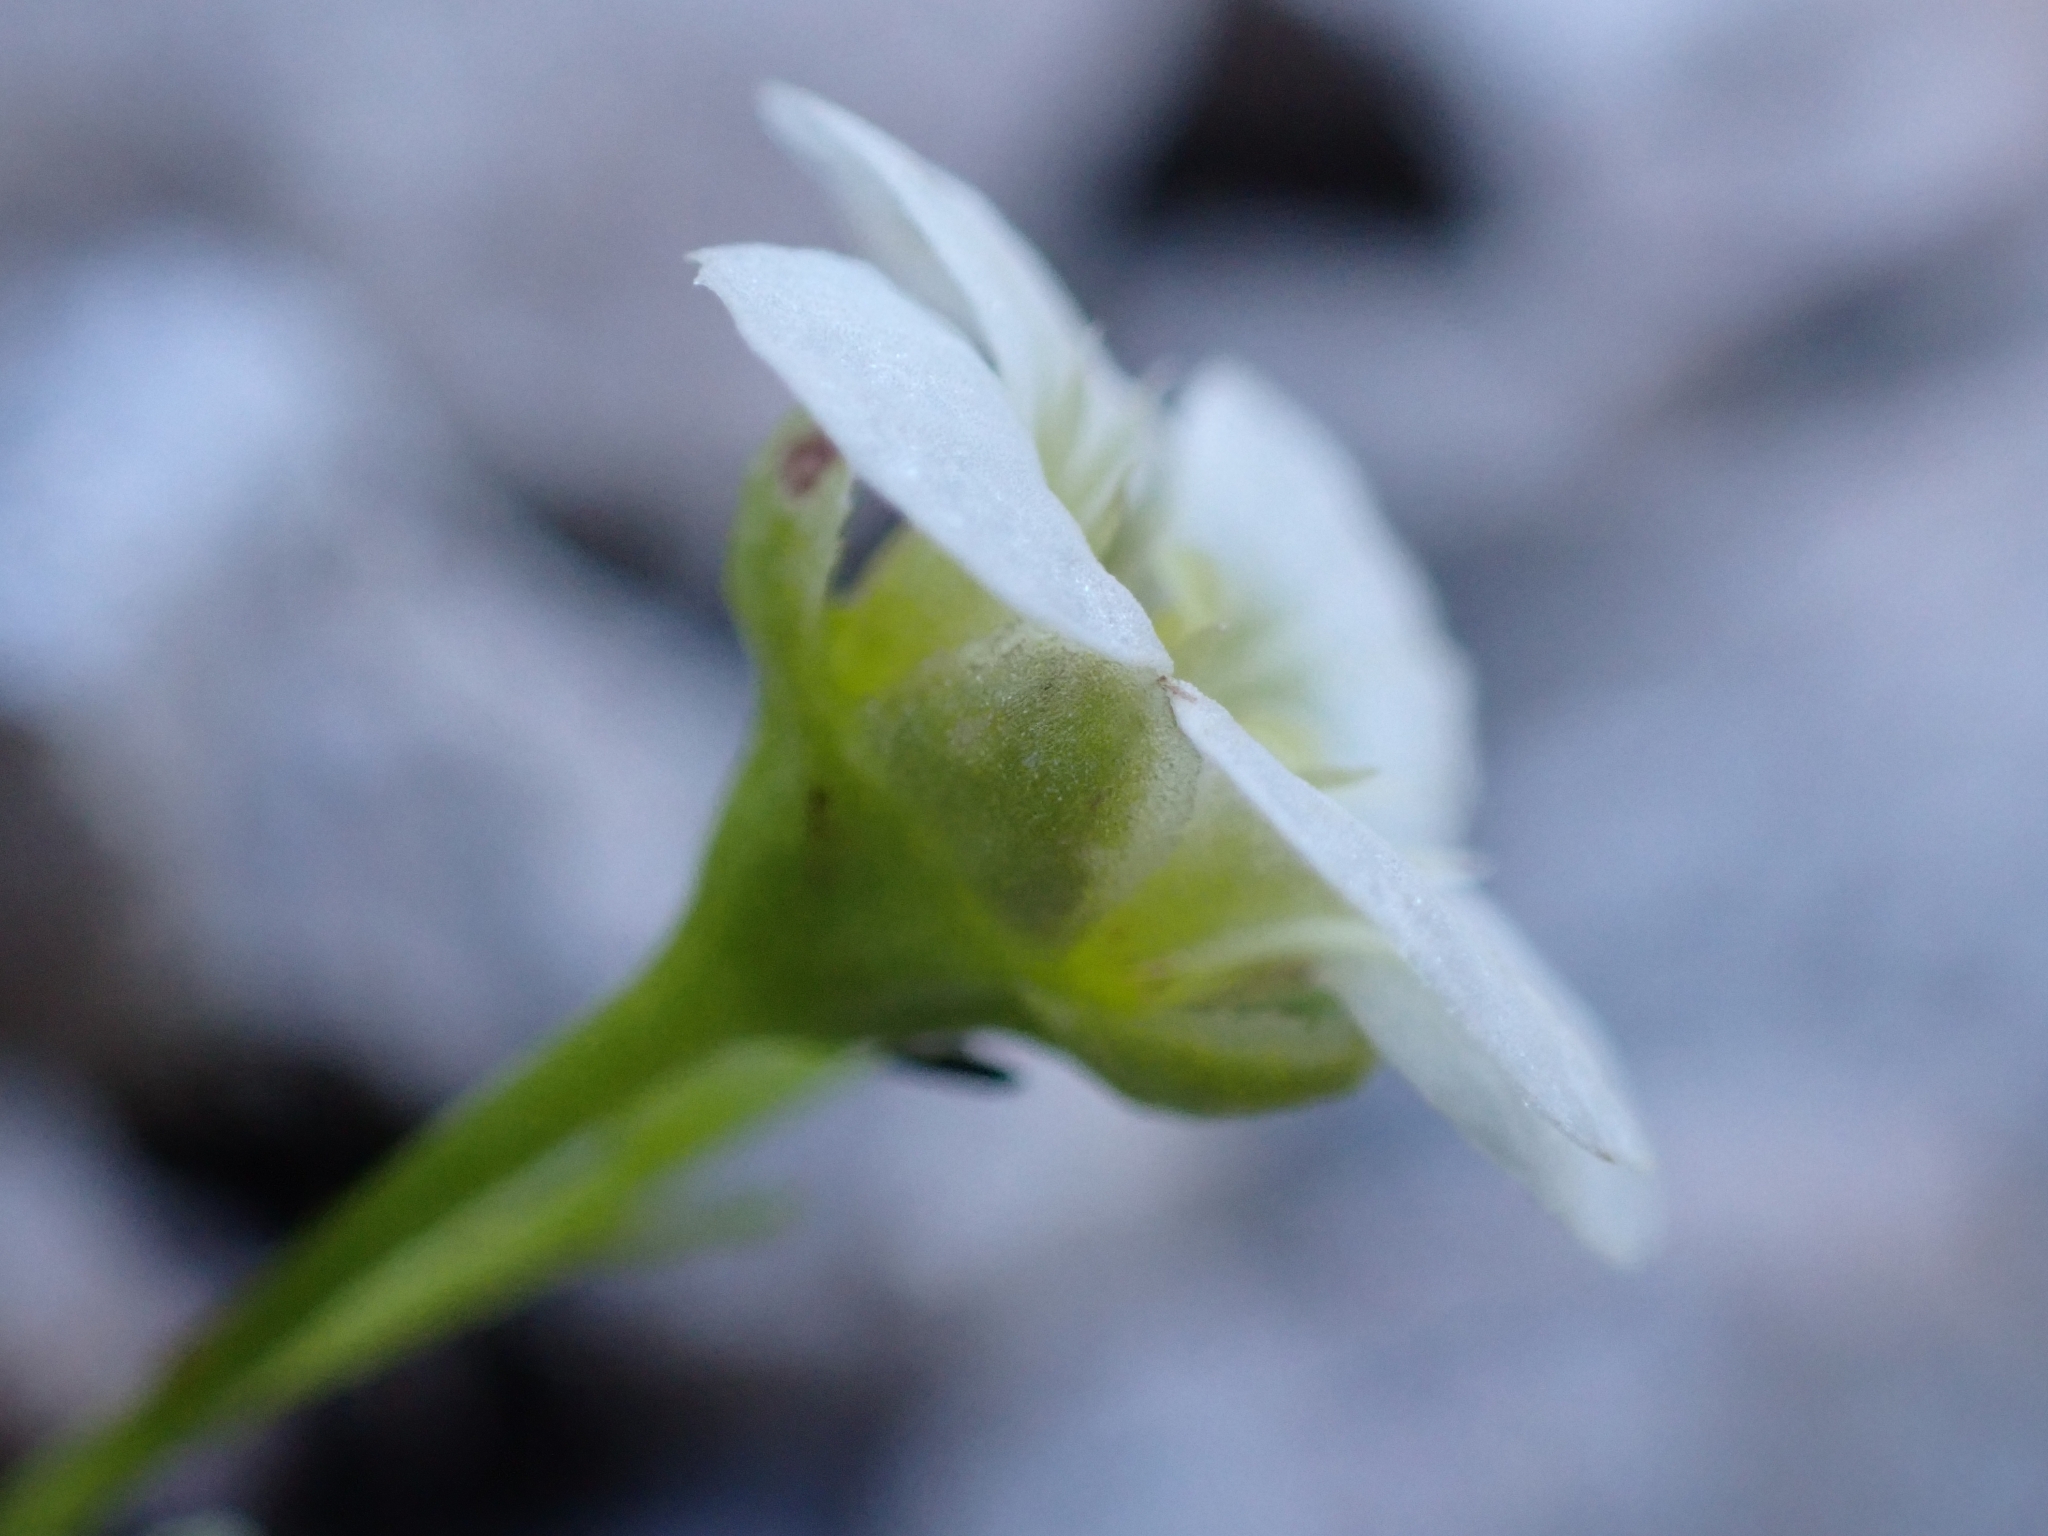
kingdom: Plantae
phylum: Tracheophyta
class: Magnoliopsida
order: Saxifragales
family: Saxifragaceae
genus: Saxifraga
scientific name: Saxifraga squarrosa
